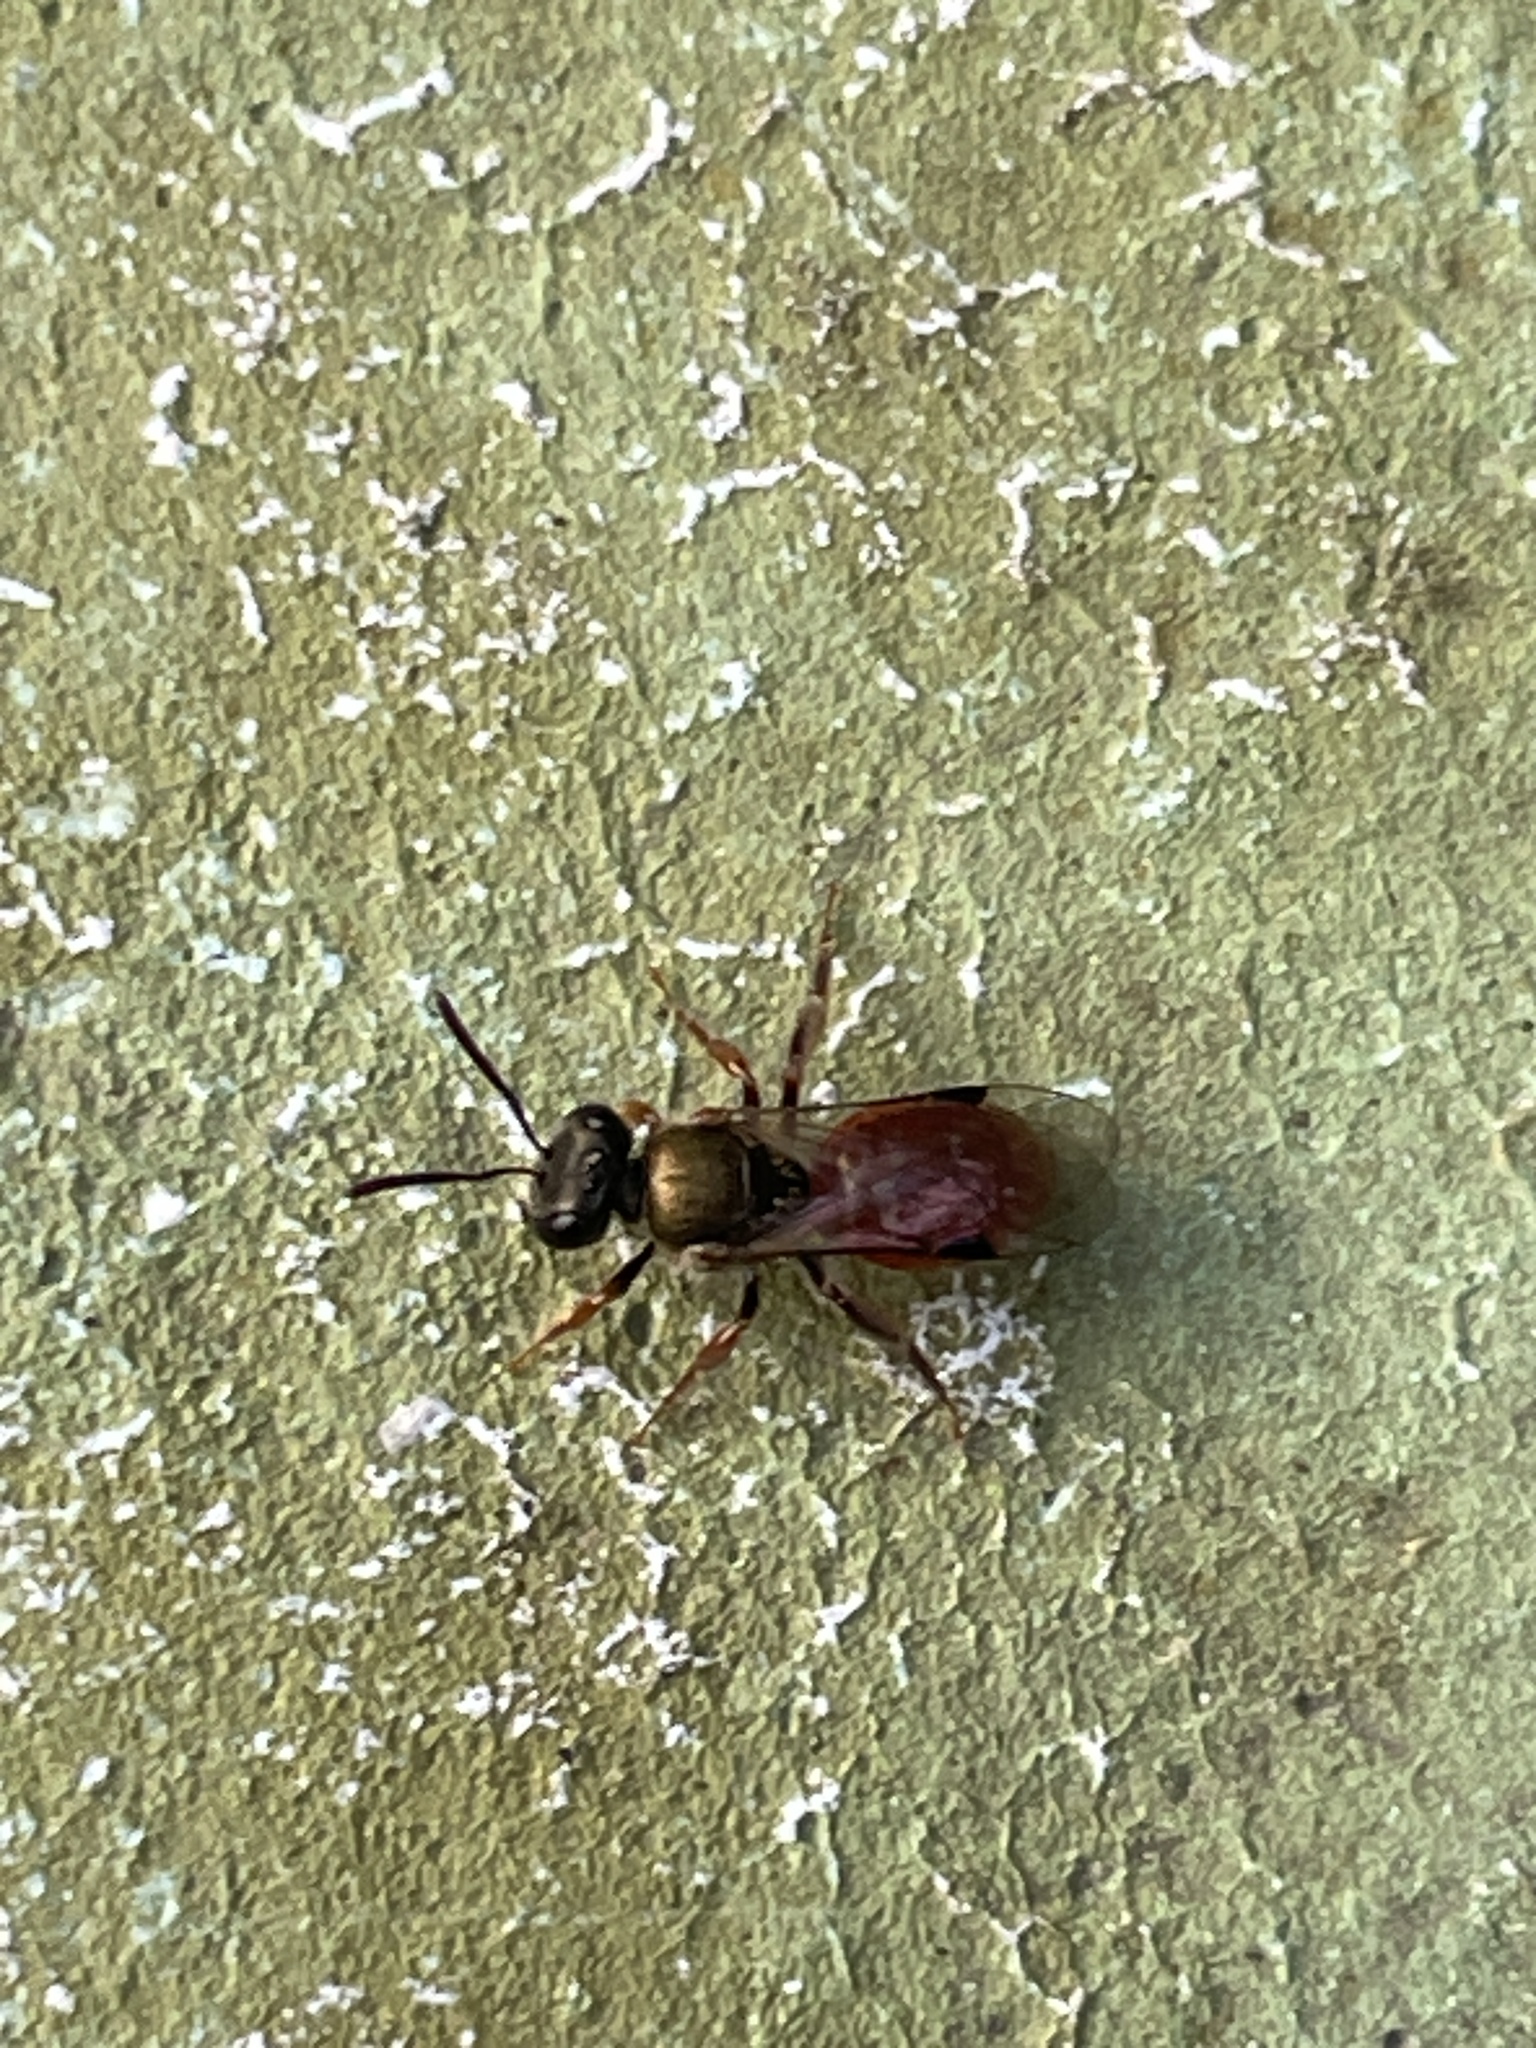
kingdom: Animalia
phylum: Arthropoda
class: Insecta
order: Hymenoptera
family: Halictidae
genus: Lasioglossum
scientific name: Lasioglossum dotatum
